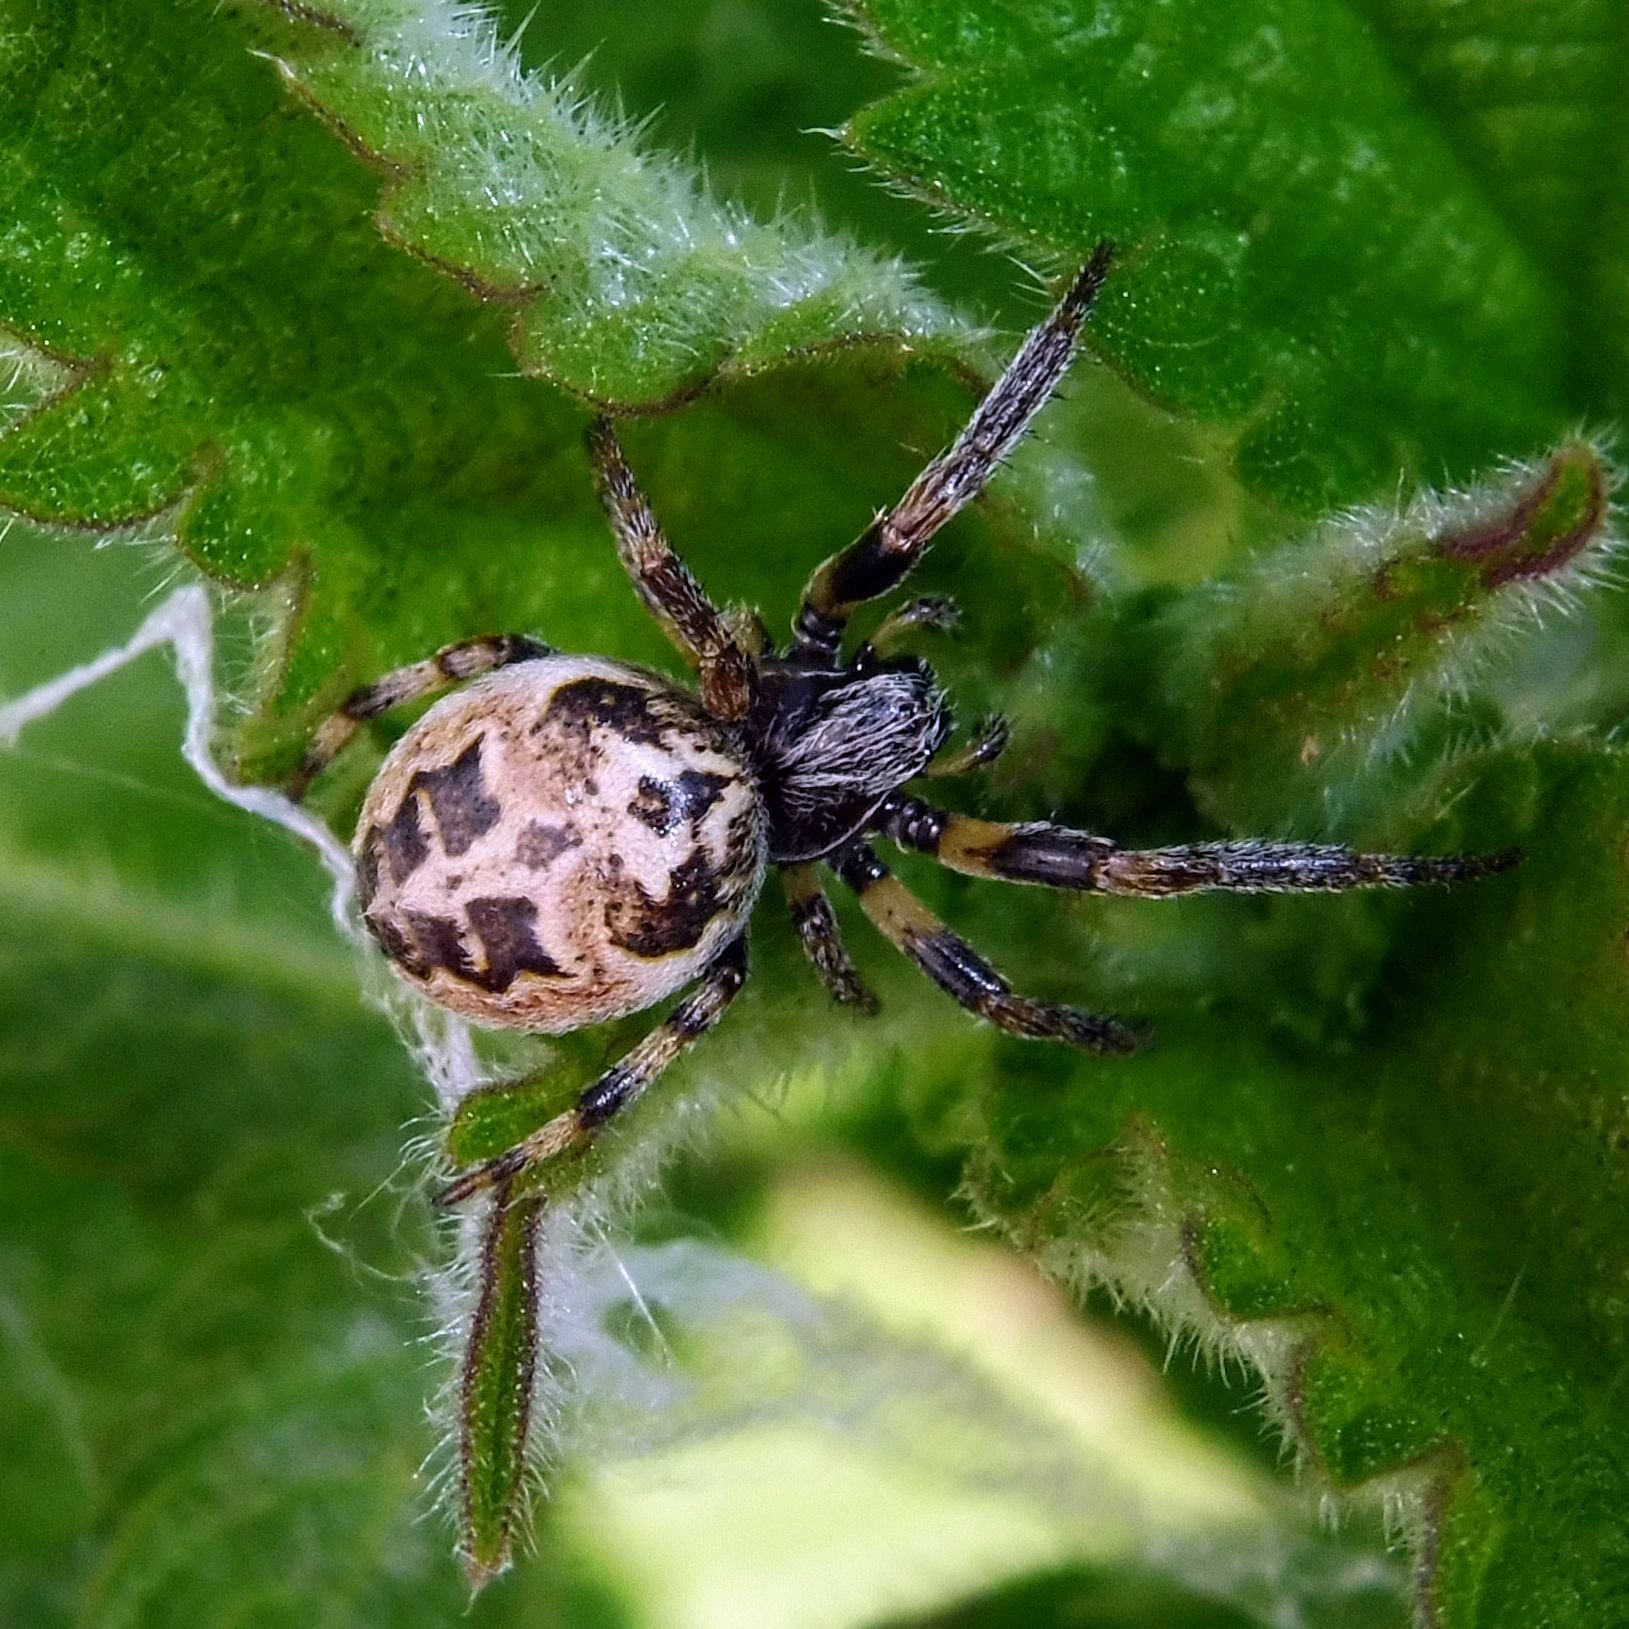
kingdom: Animalia
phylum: Arthropoda
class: Arachnida
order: Araneae
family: Araneidae
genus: Larinioides
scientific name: Larinioides cornutus
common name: Furrow orbweaver
